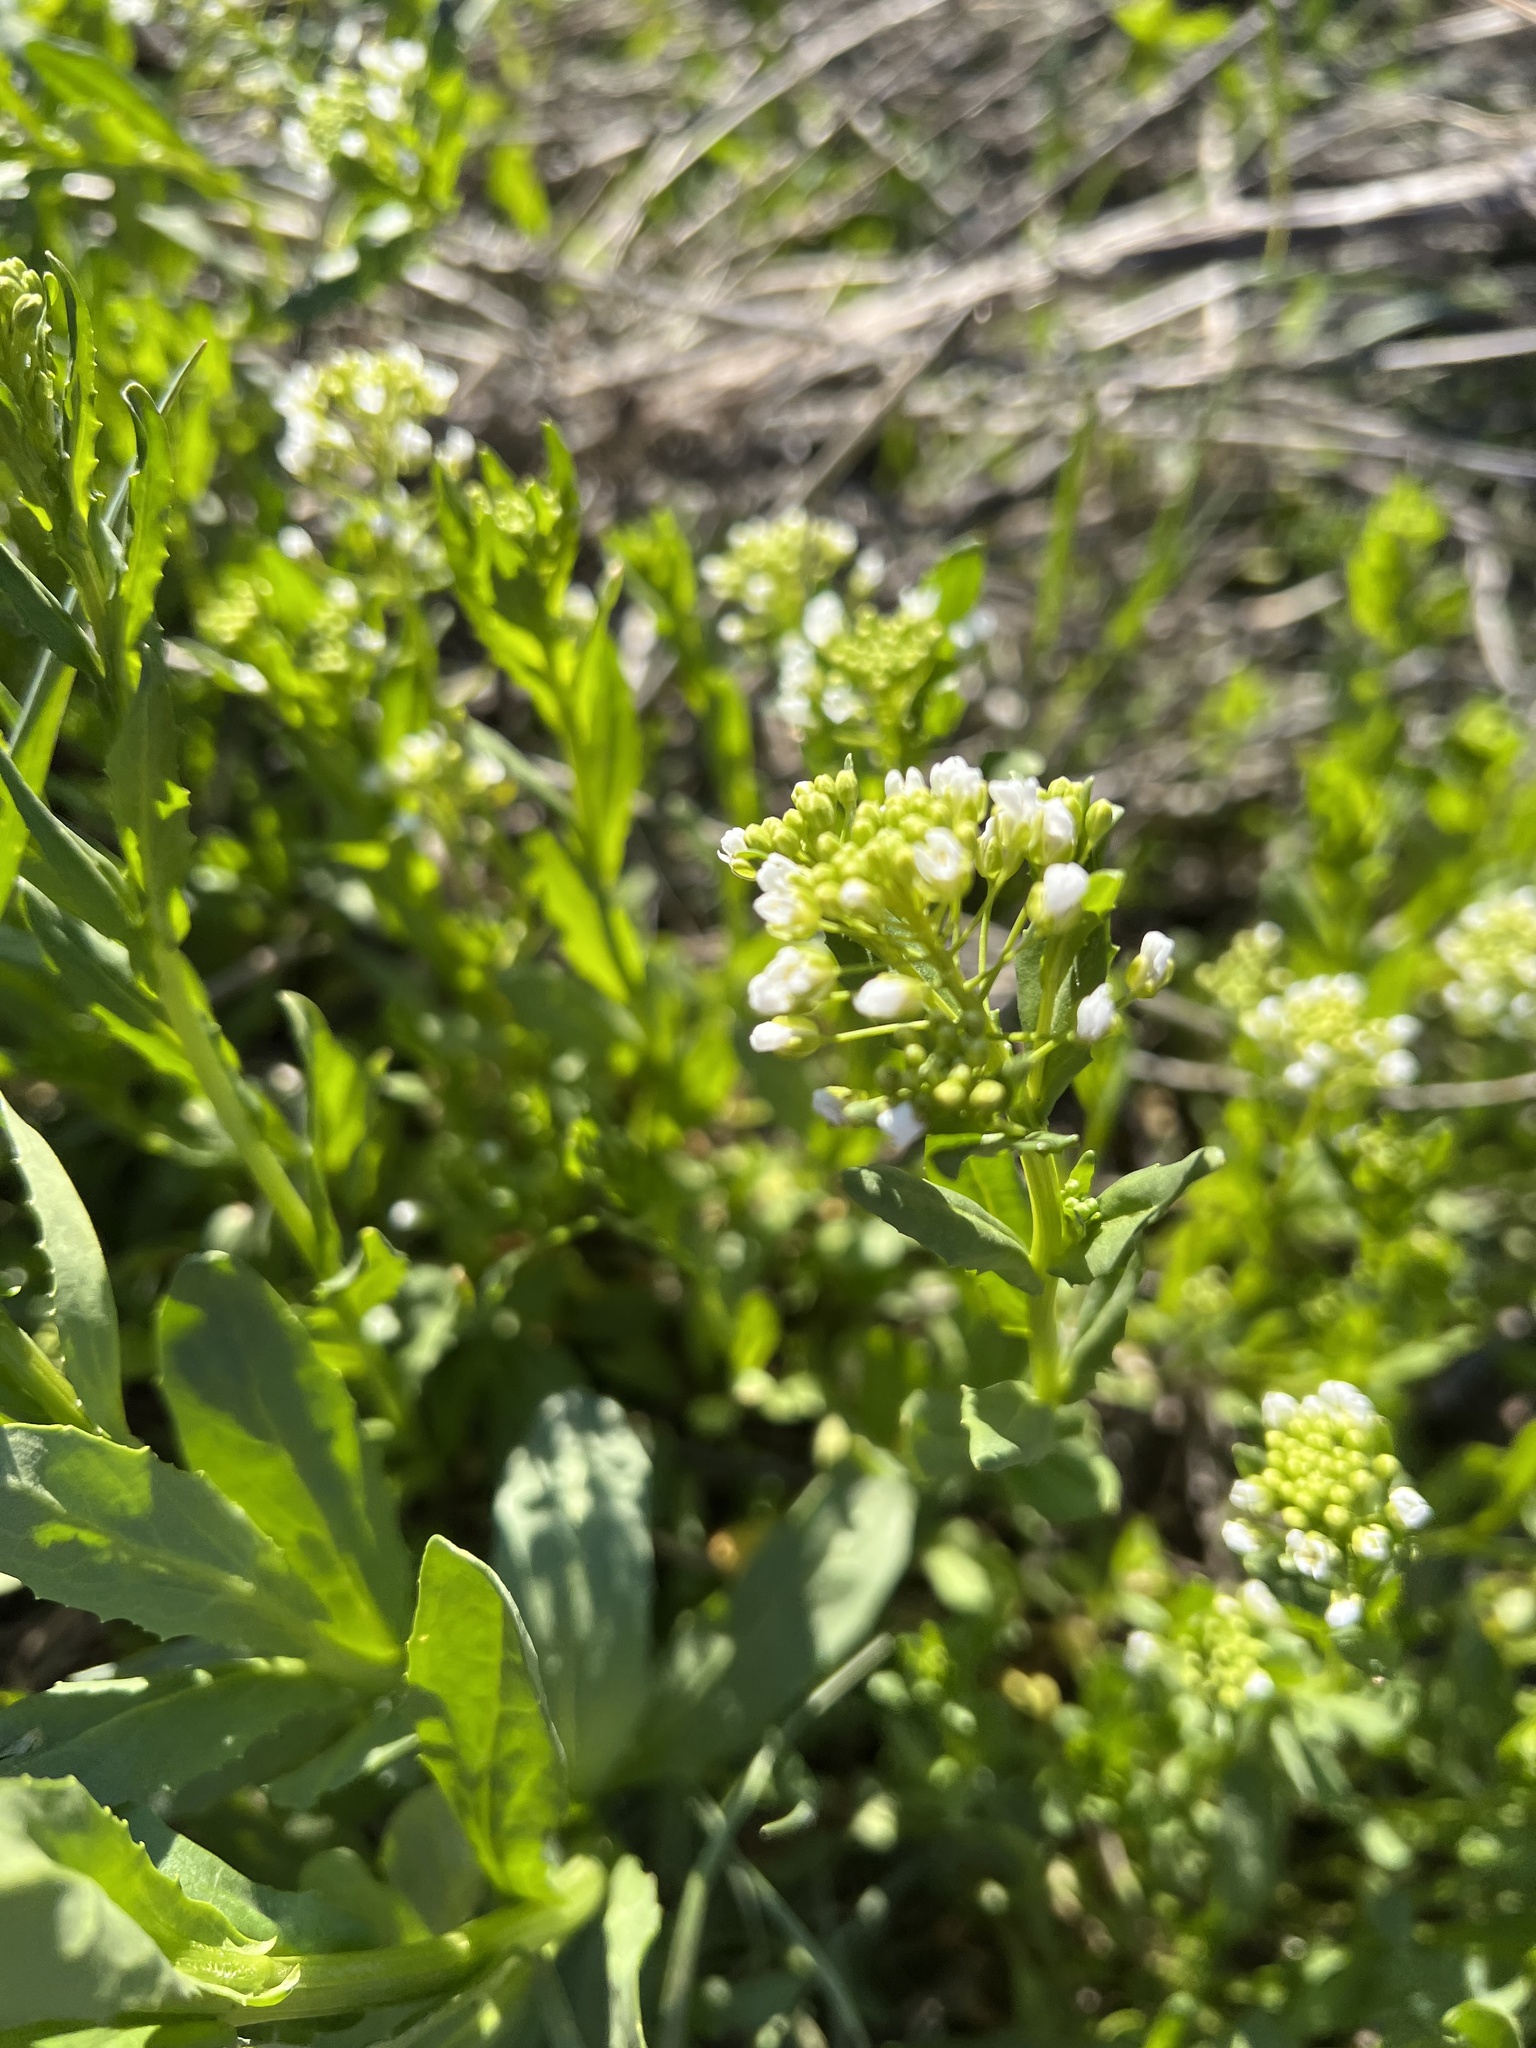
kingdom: Plantae
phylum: Tracheophyta
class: Magnoliopsida
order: Brassicales
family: Brassicaceae
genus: Thlaspi
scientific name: Thlaspi arvense
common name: Field pennycress
